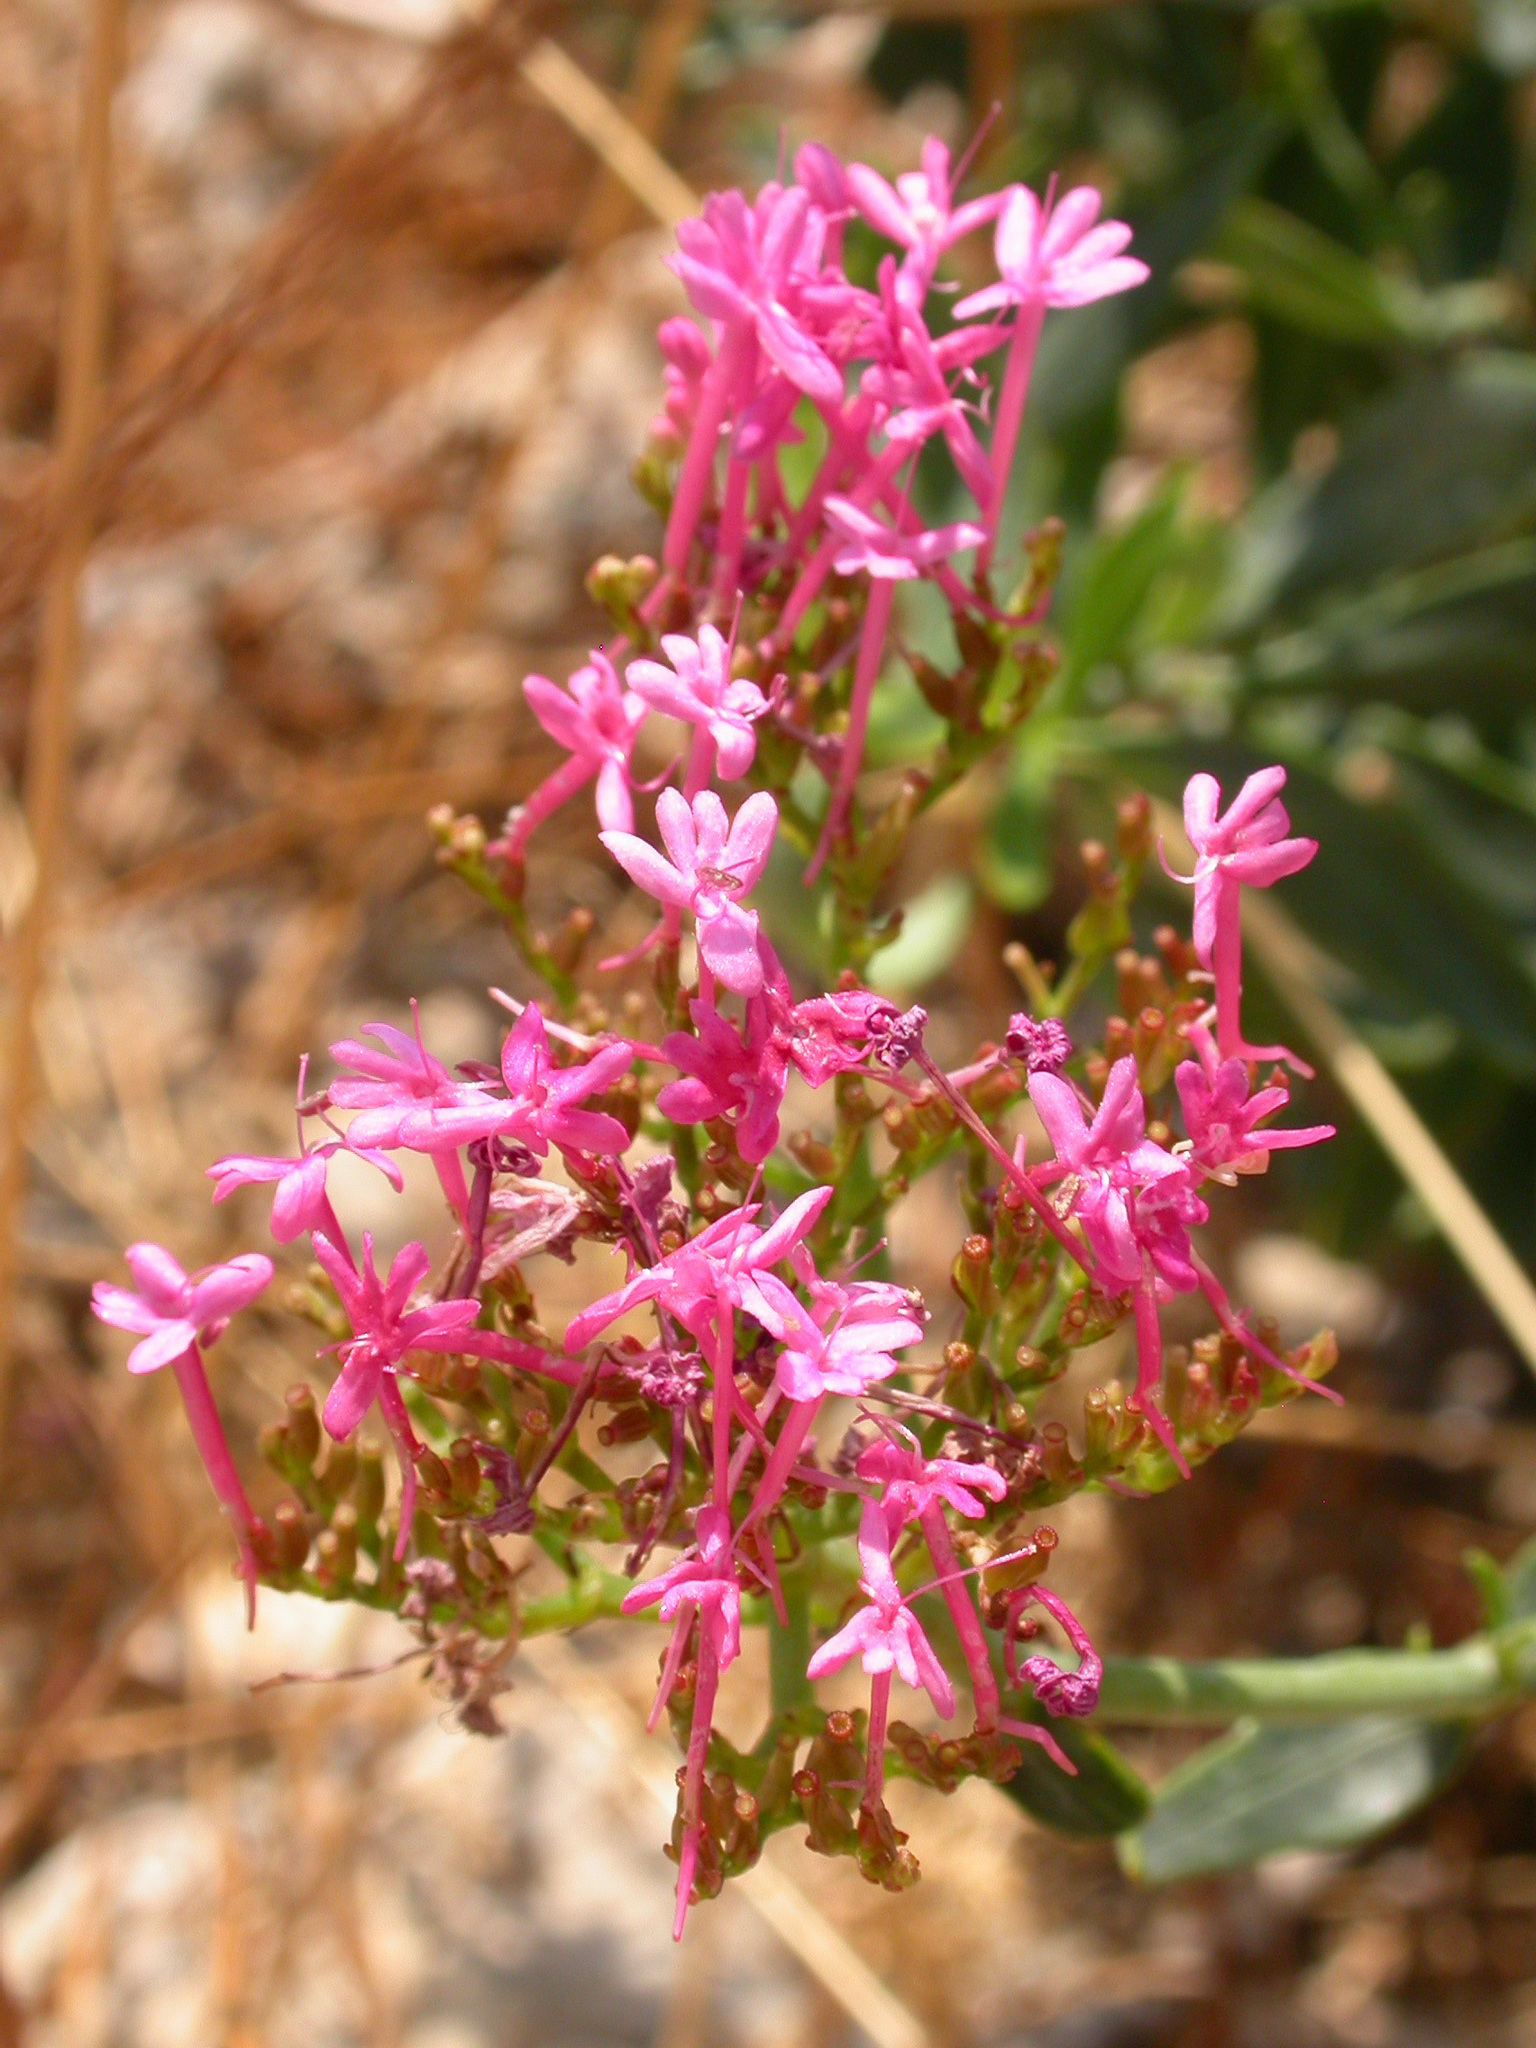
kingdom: Plantae
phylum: Tracheophyta
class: Magnoliopsida
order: Dipsacales
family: Caprifoliaceae
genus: Centranthus
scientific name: Centranthus ruber
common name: Red valerian
